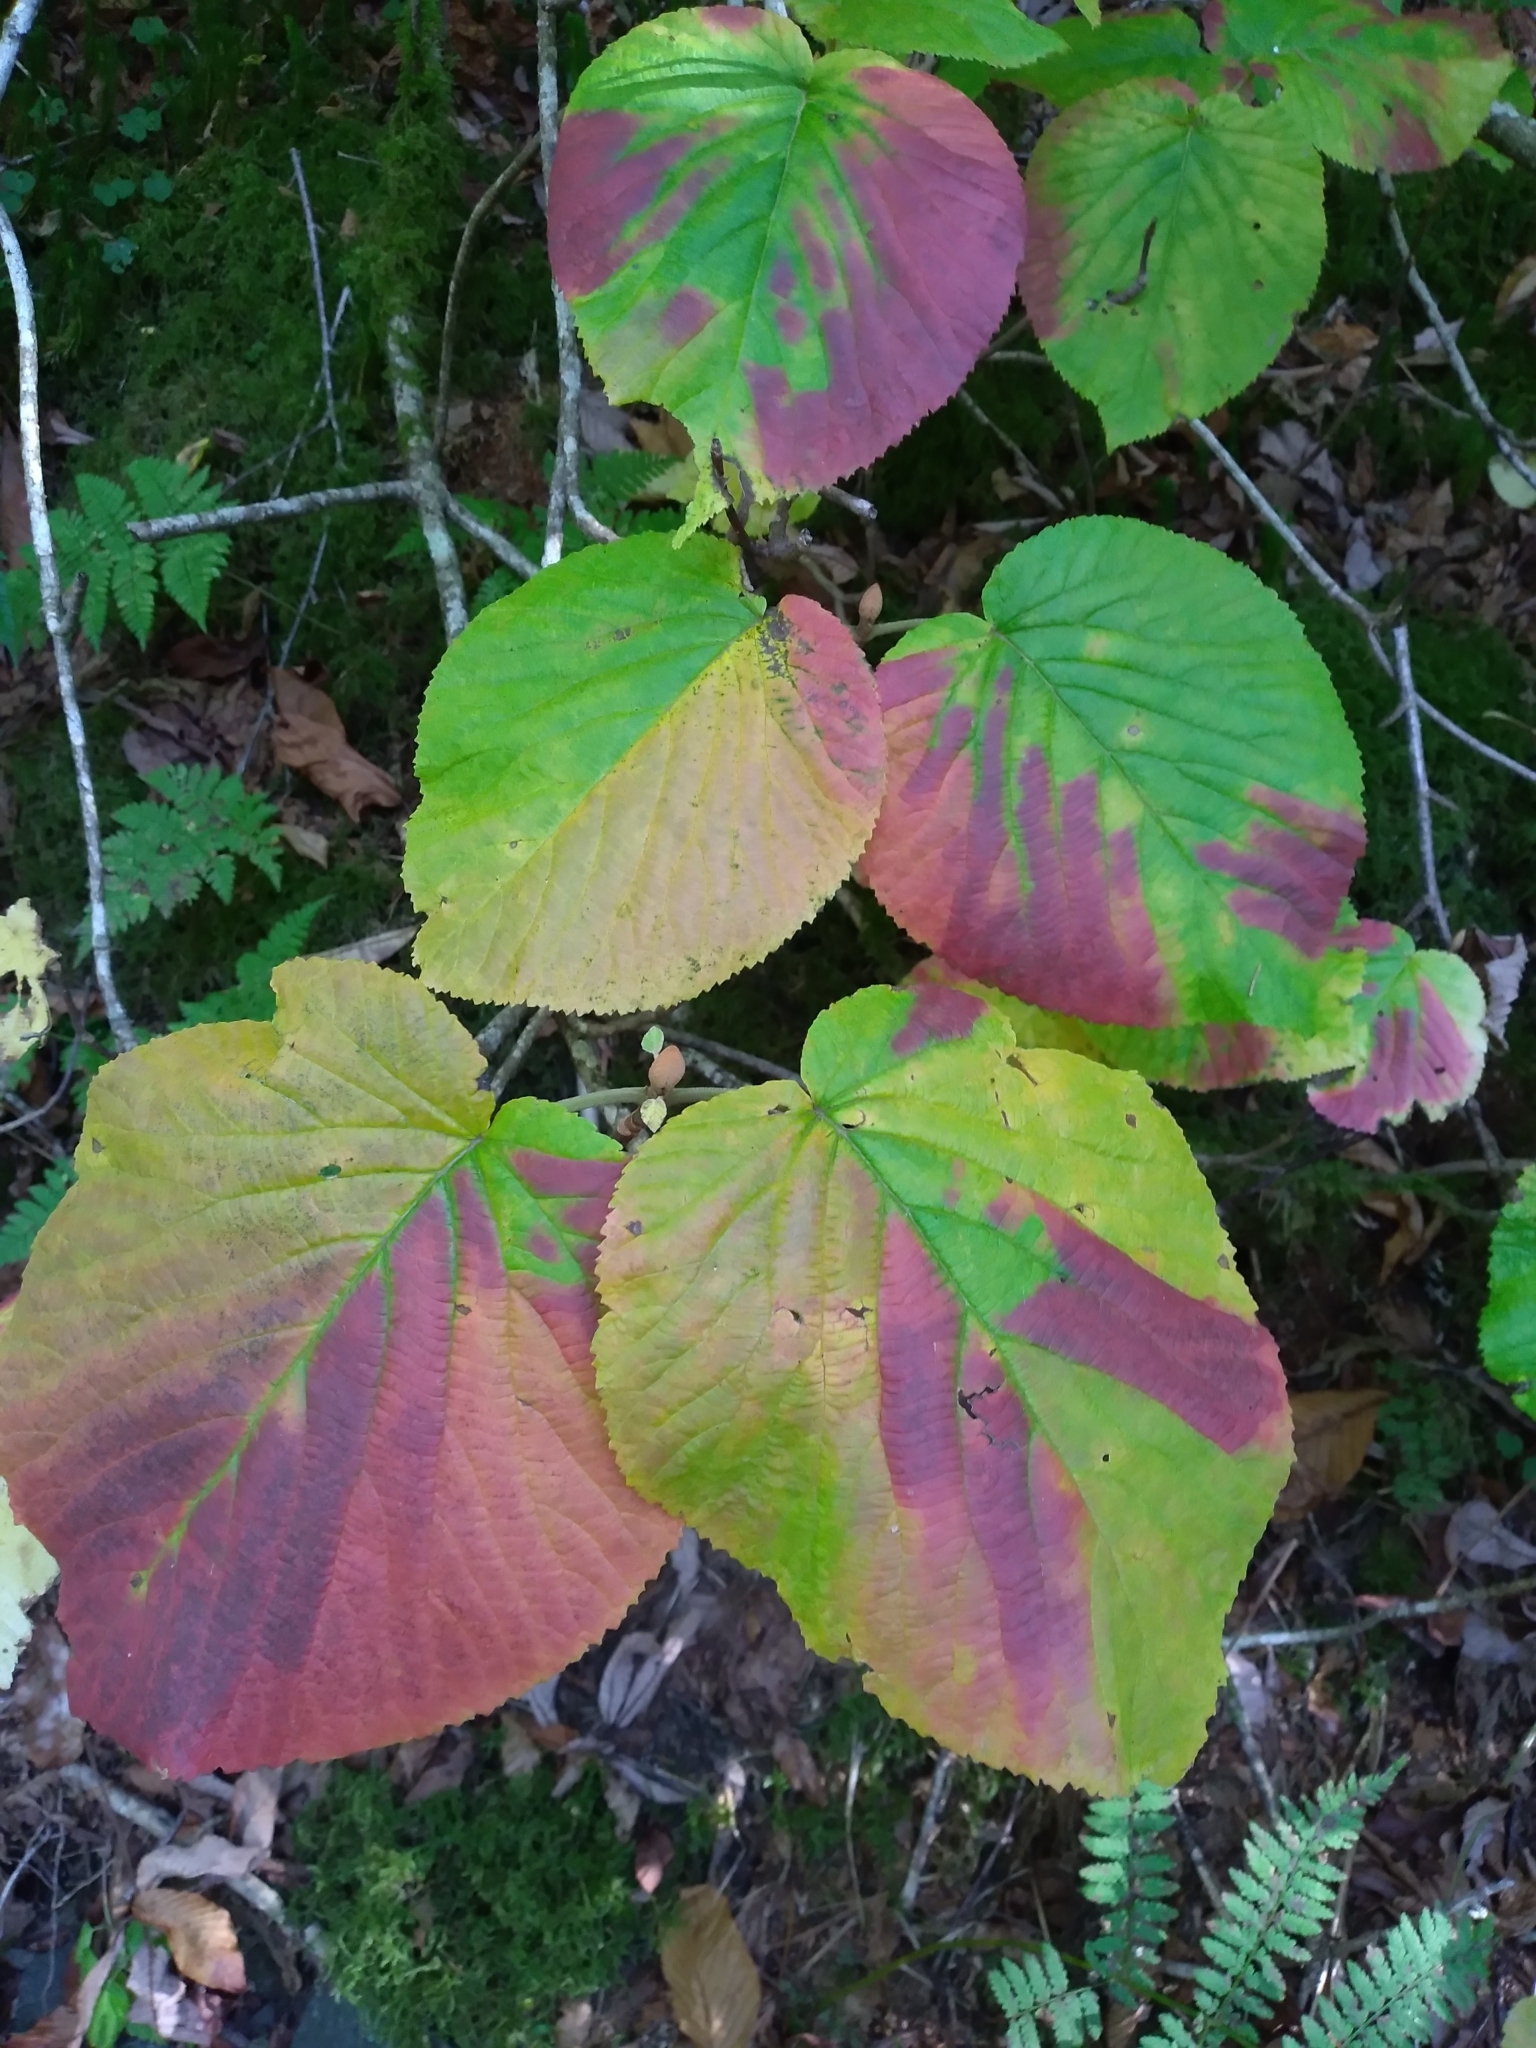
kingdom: Plantae
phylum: Tracheophyta
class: Magnoliopsida
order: Dipsacales
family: Viburnaceae
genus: Viburnum
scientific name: Viburnum lantanoides
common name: Hobblebush
